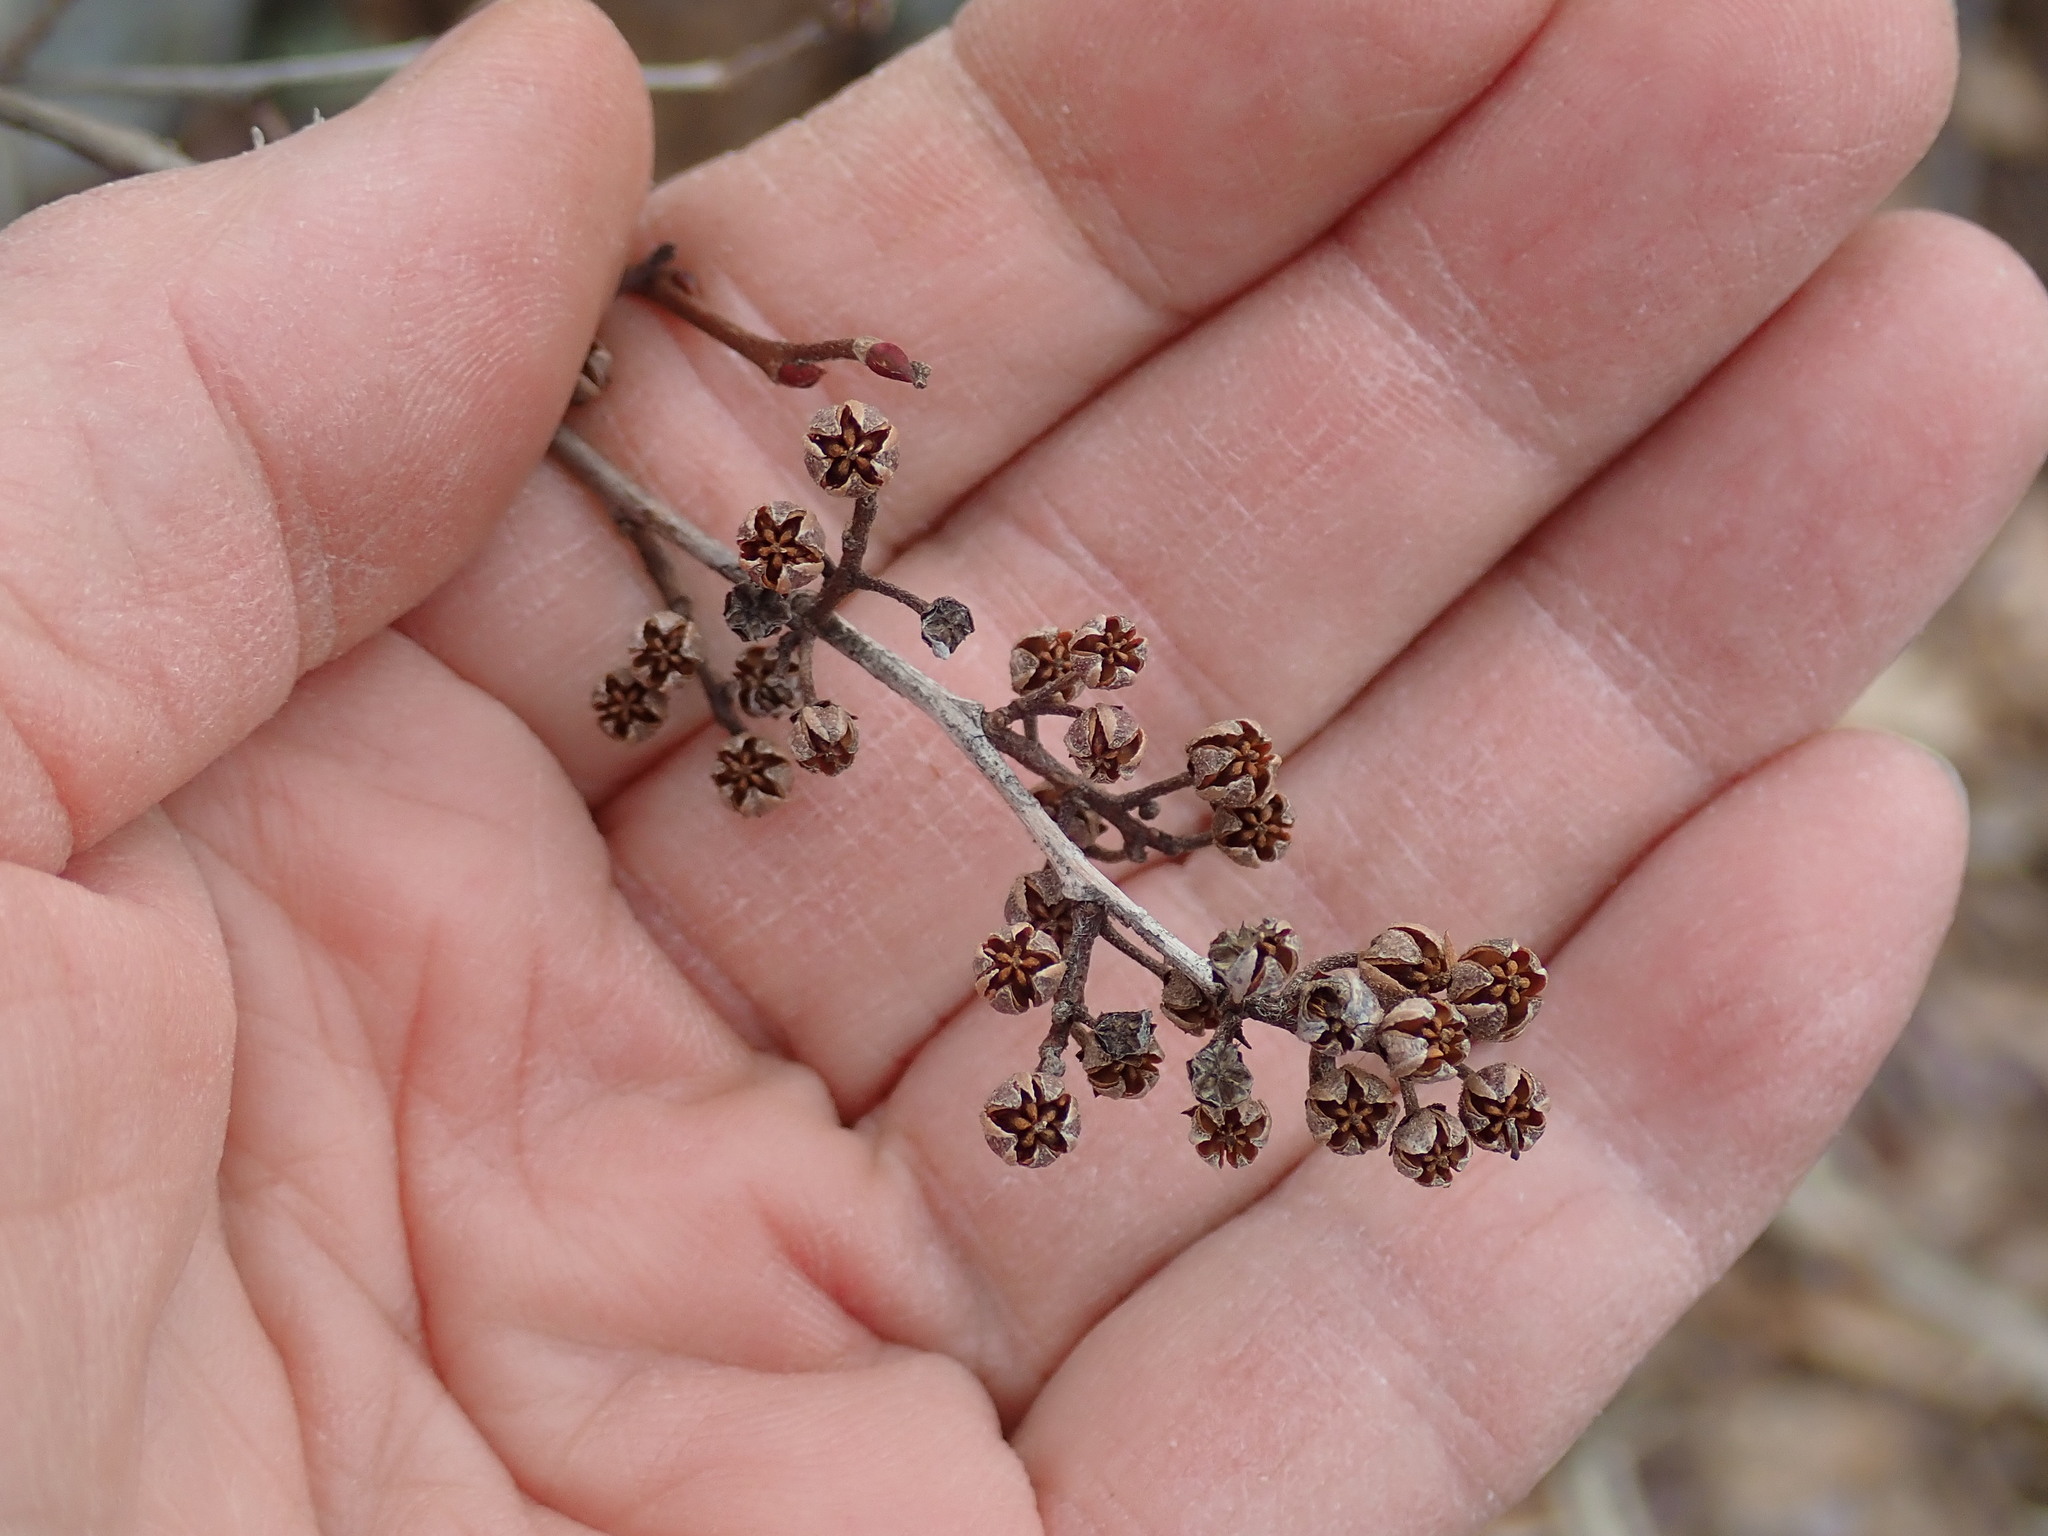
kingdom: Plantae
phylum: Tracheophyta
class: Magnoliopsida
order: Ericales
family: Ericaceae
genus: Lyonia
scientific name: Lyonia ligustrina
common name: Maleberry
